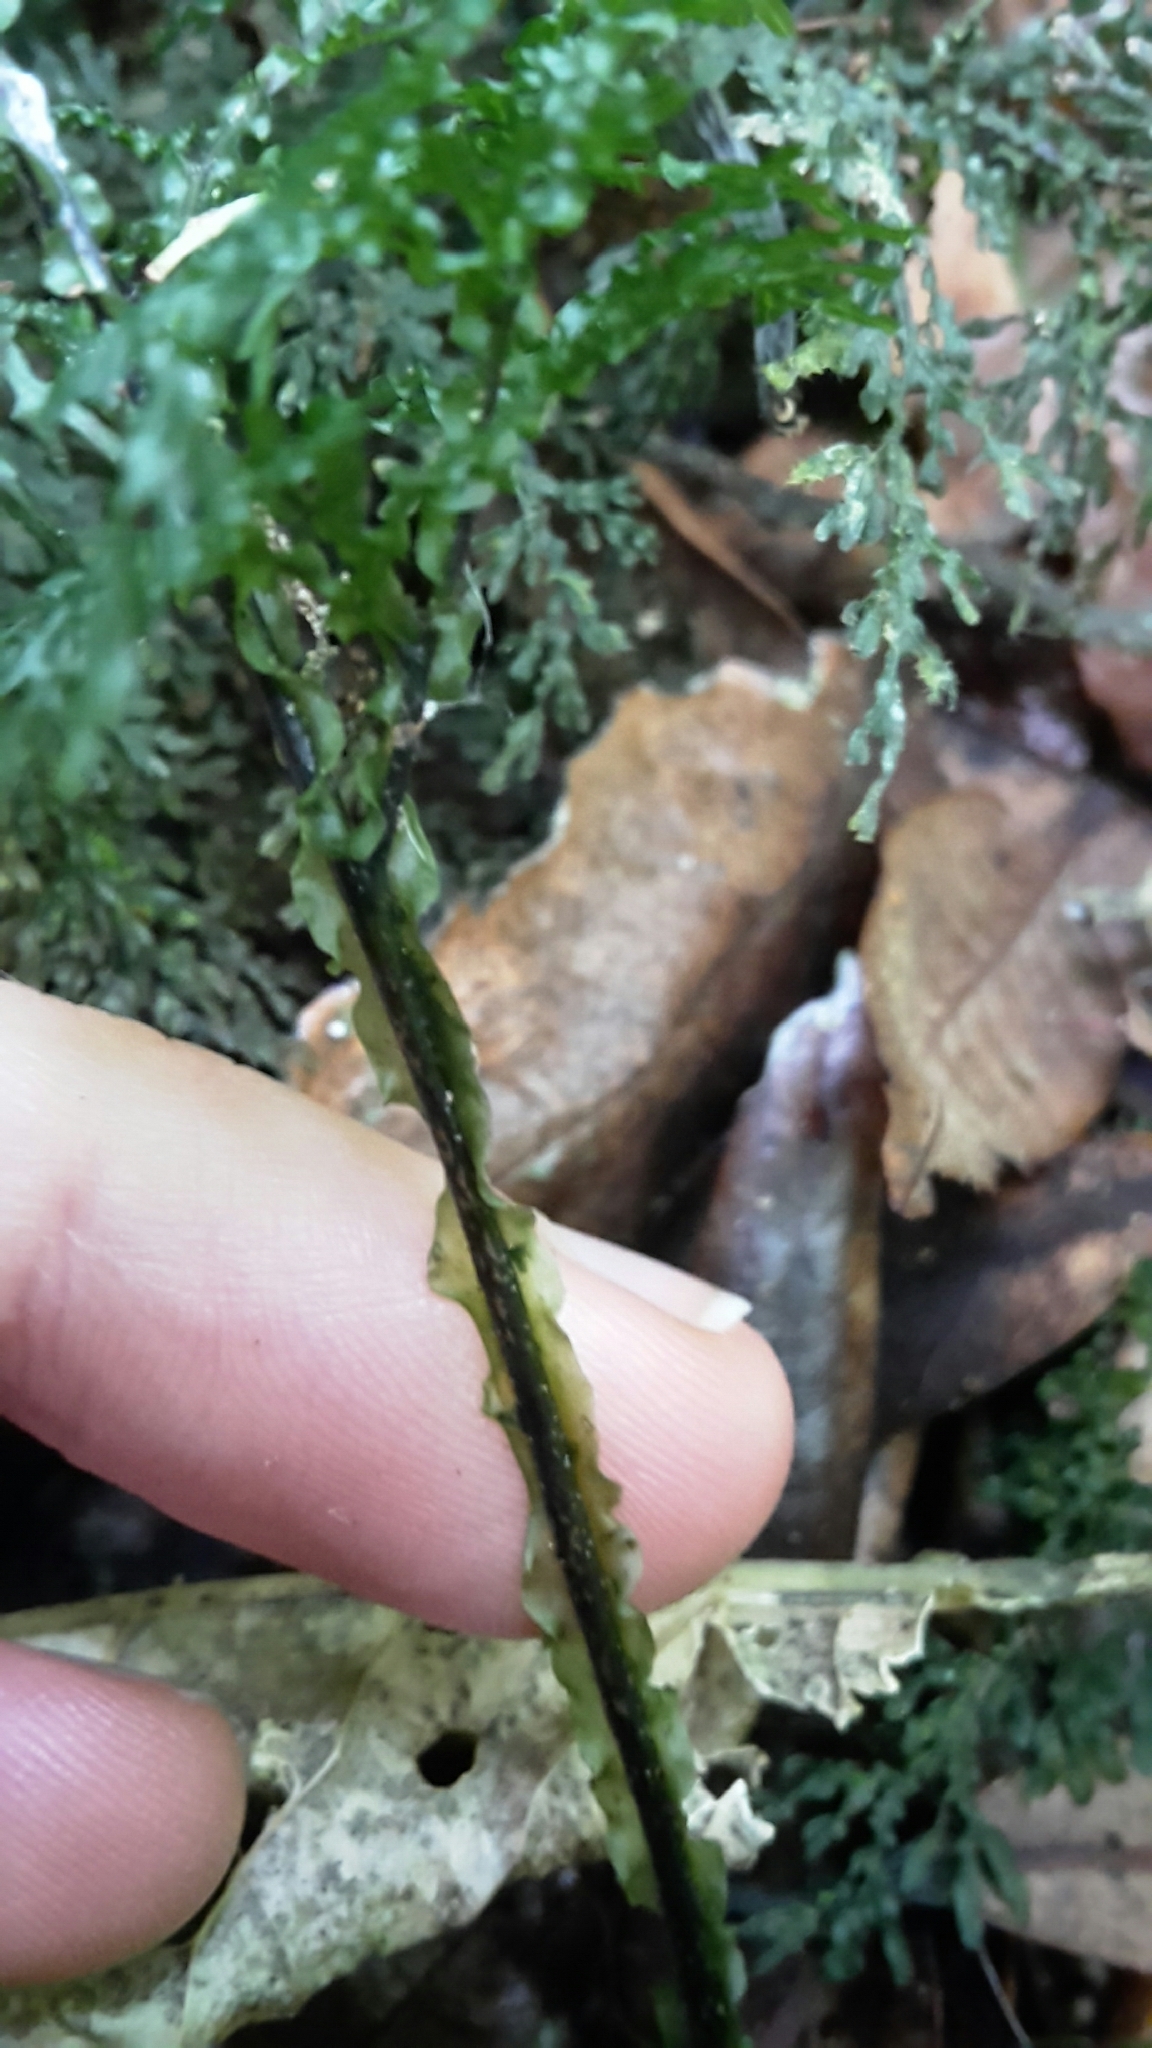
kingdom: Plantae
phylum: Tracheophyta
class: Polypodiopsida
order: Hymenophyllales
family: Hymenophyllaceae
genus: Hymenophyllum
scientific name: Hymenophyllum flexuosum
